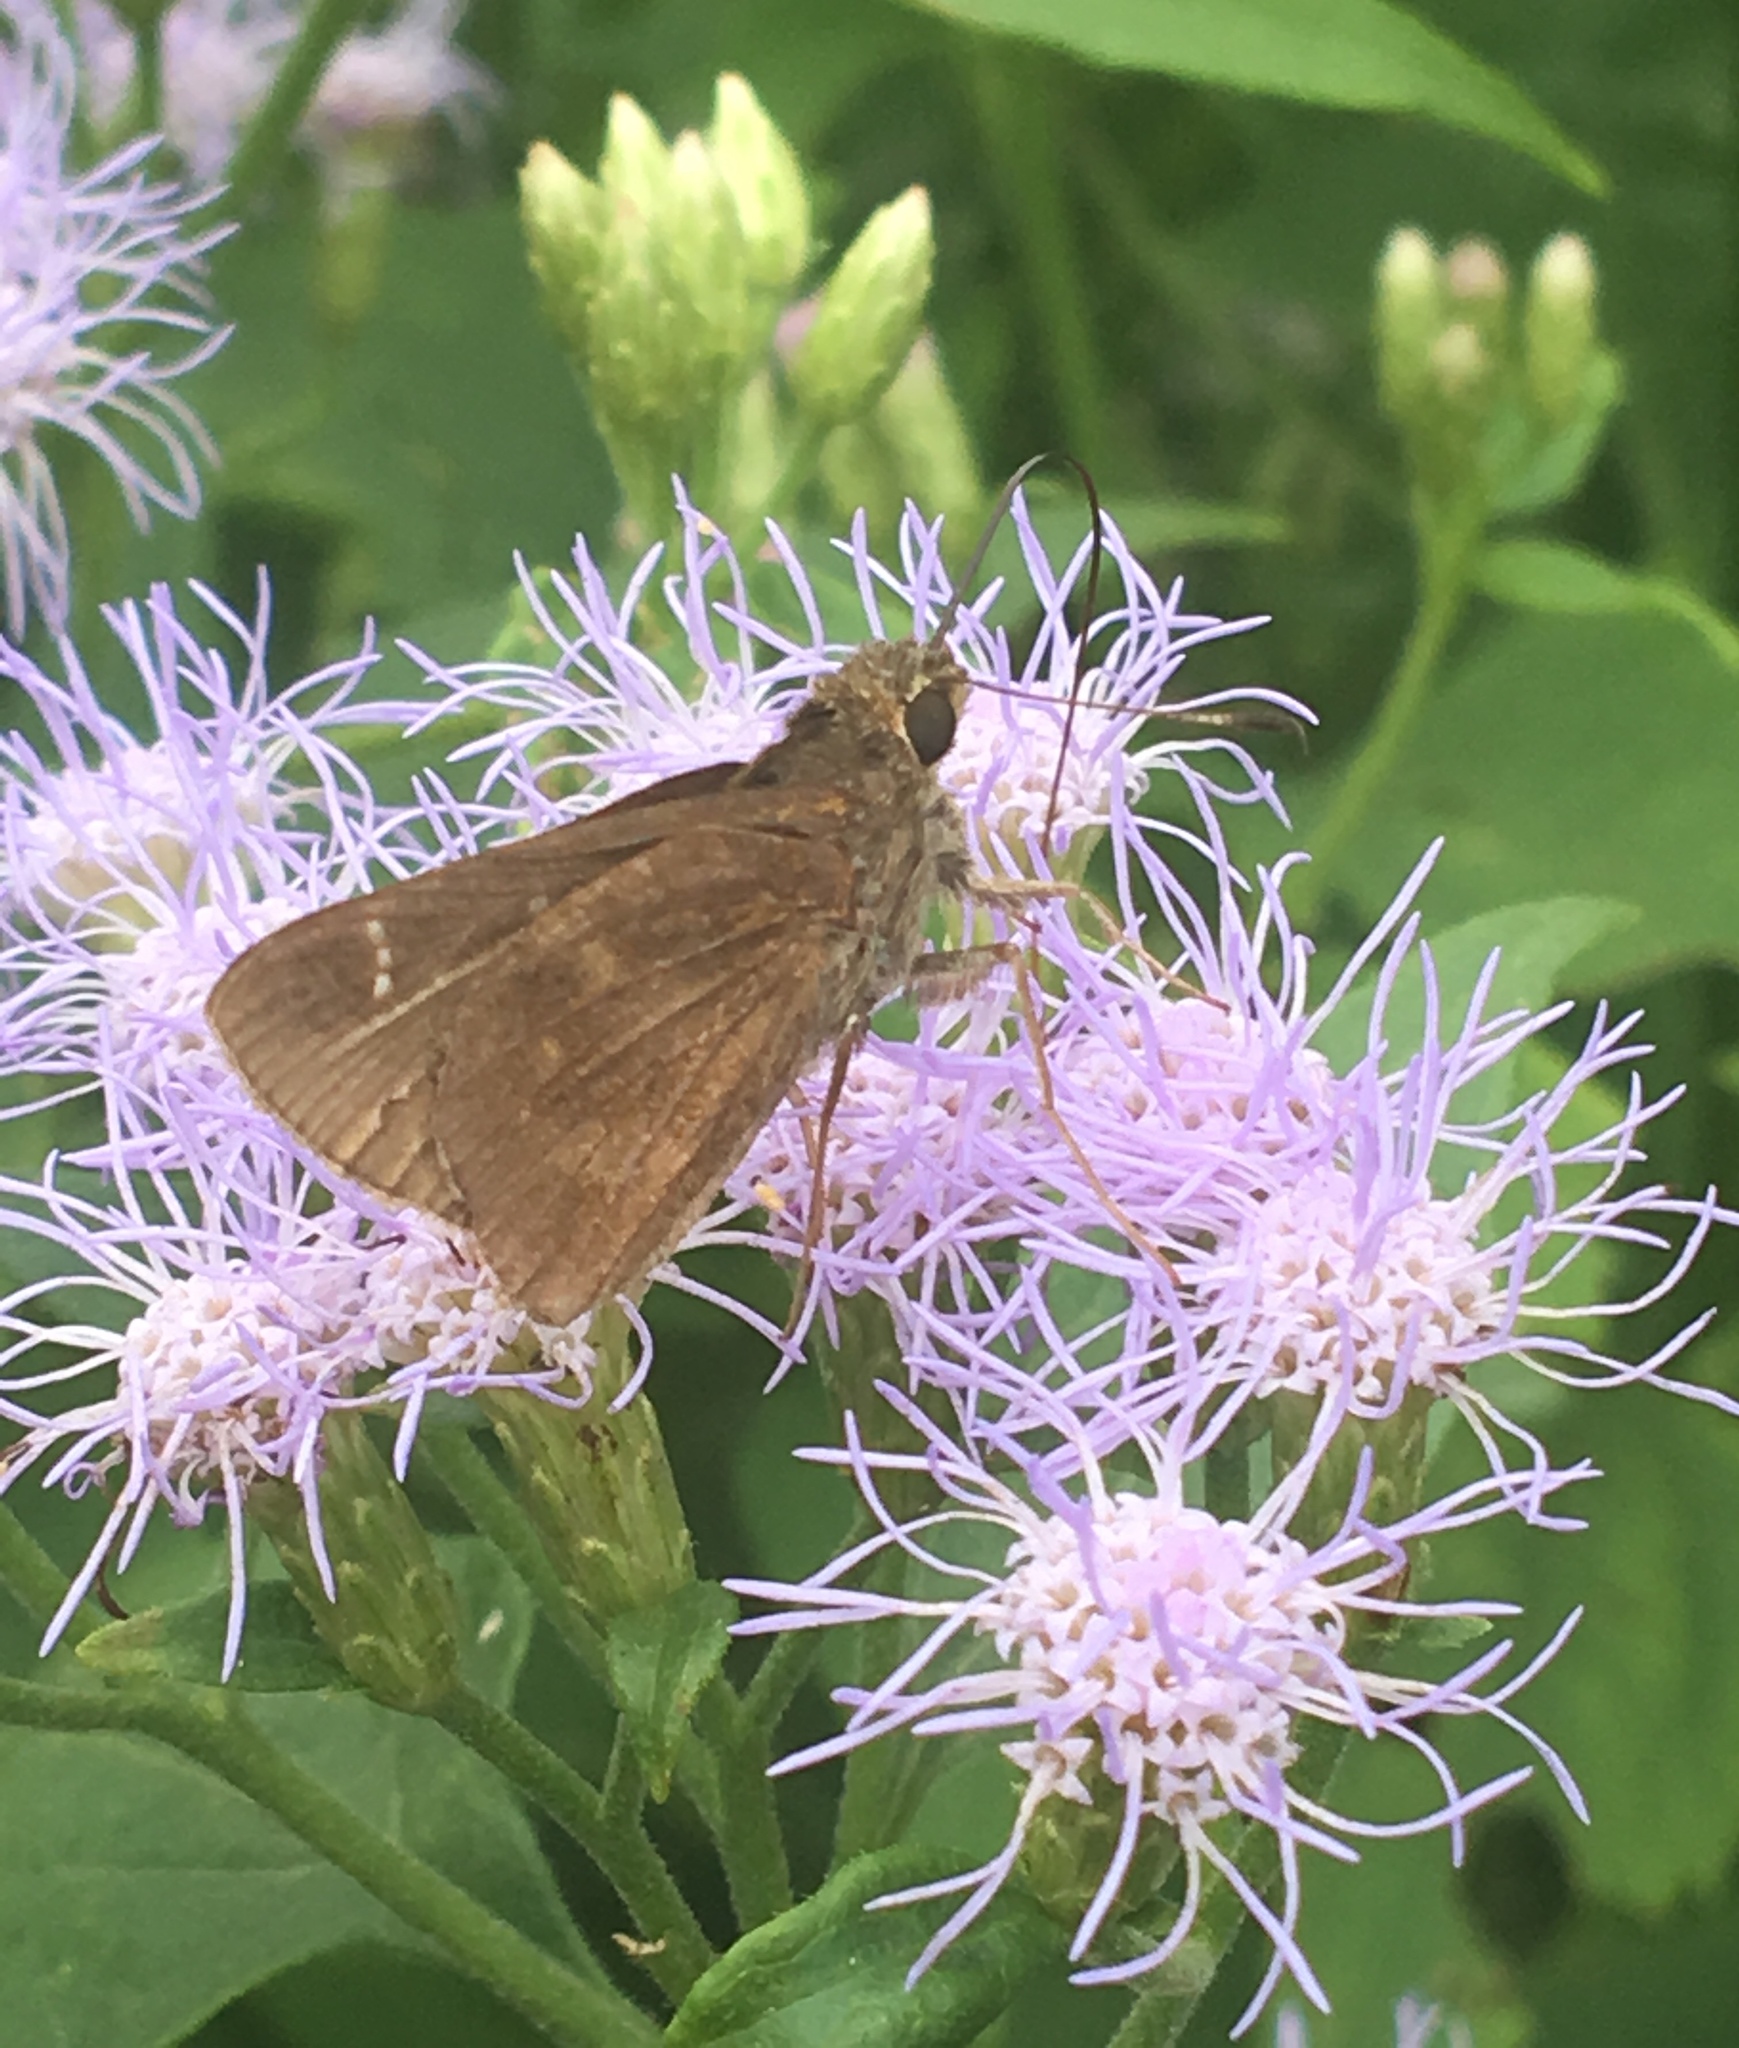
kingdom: Animalia
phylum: Arthropoda
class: Insecta
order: Lepidoptera
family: Hesperiidae
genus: Lerema
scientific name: Lerema accius
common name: Clouded skipper
